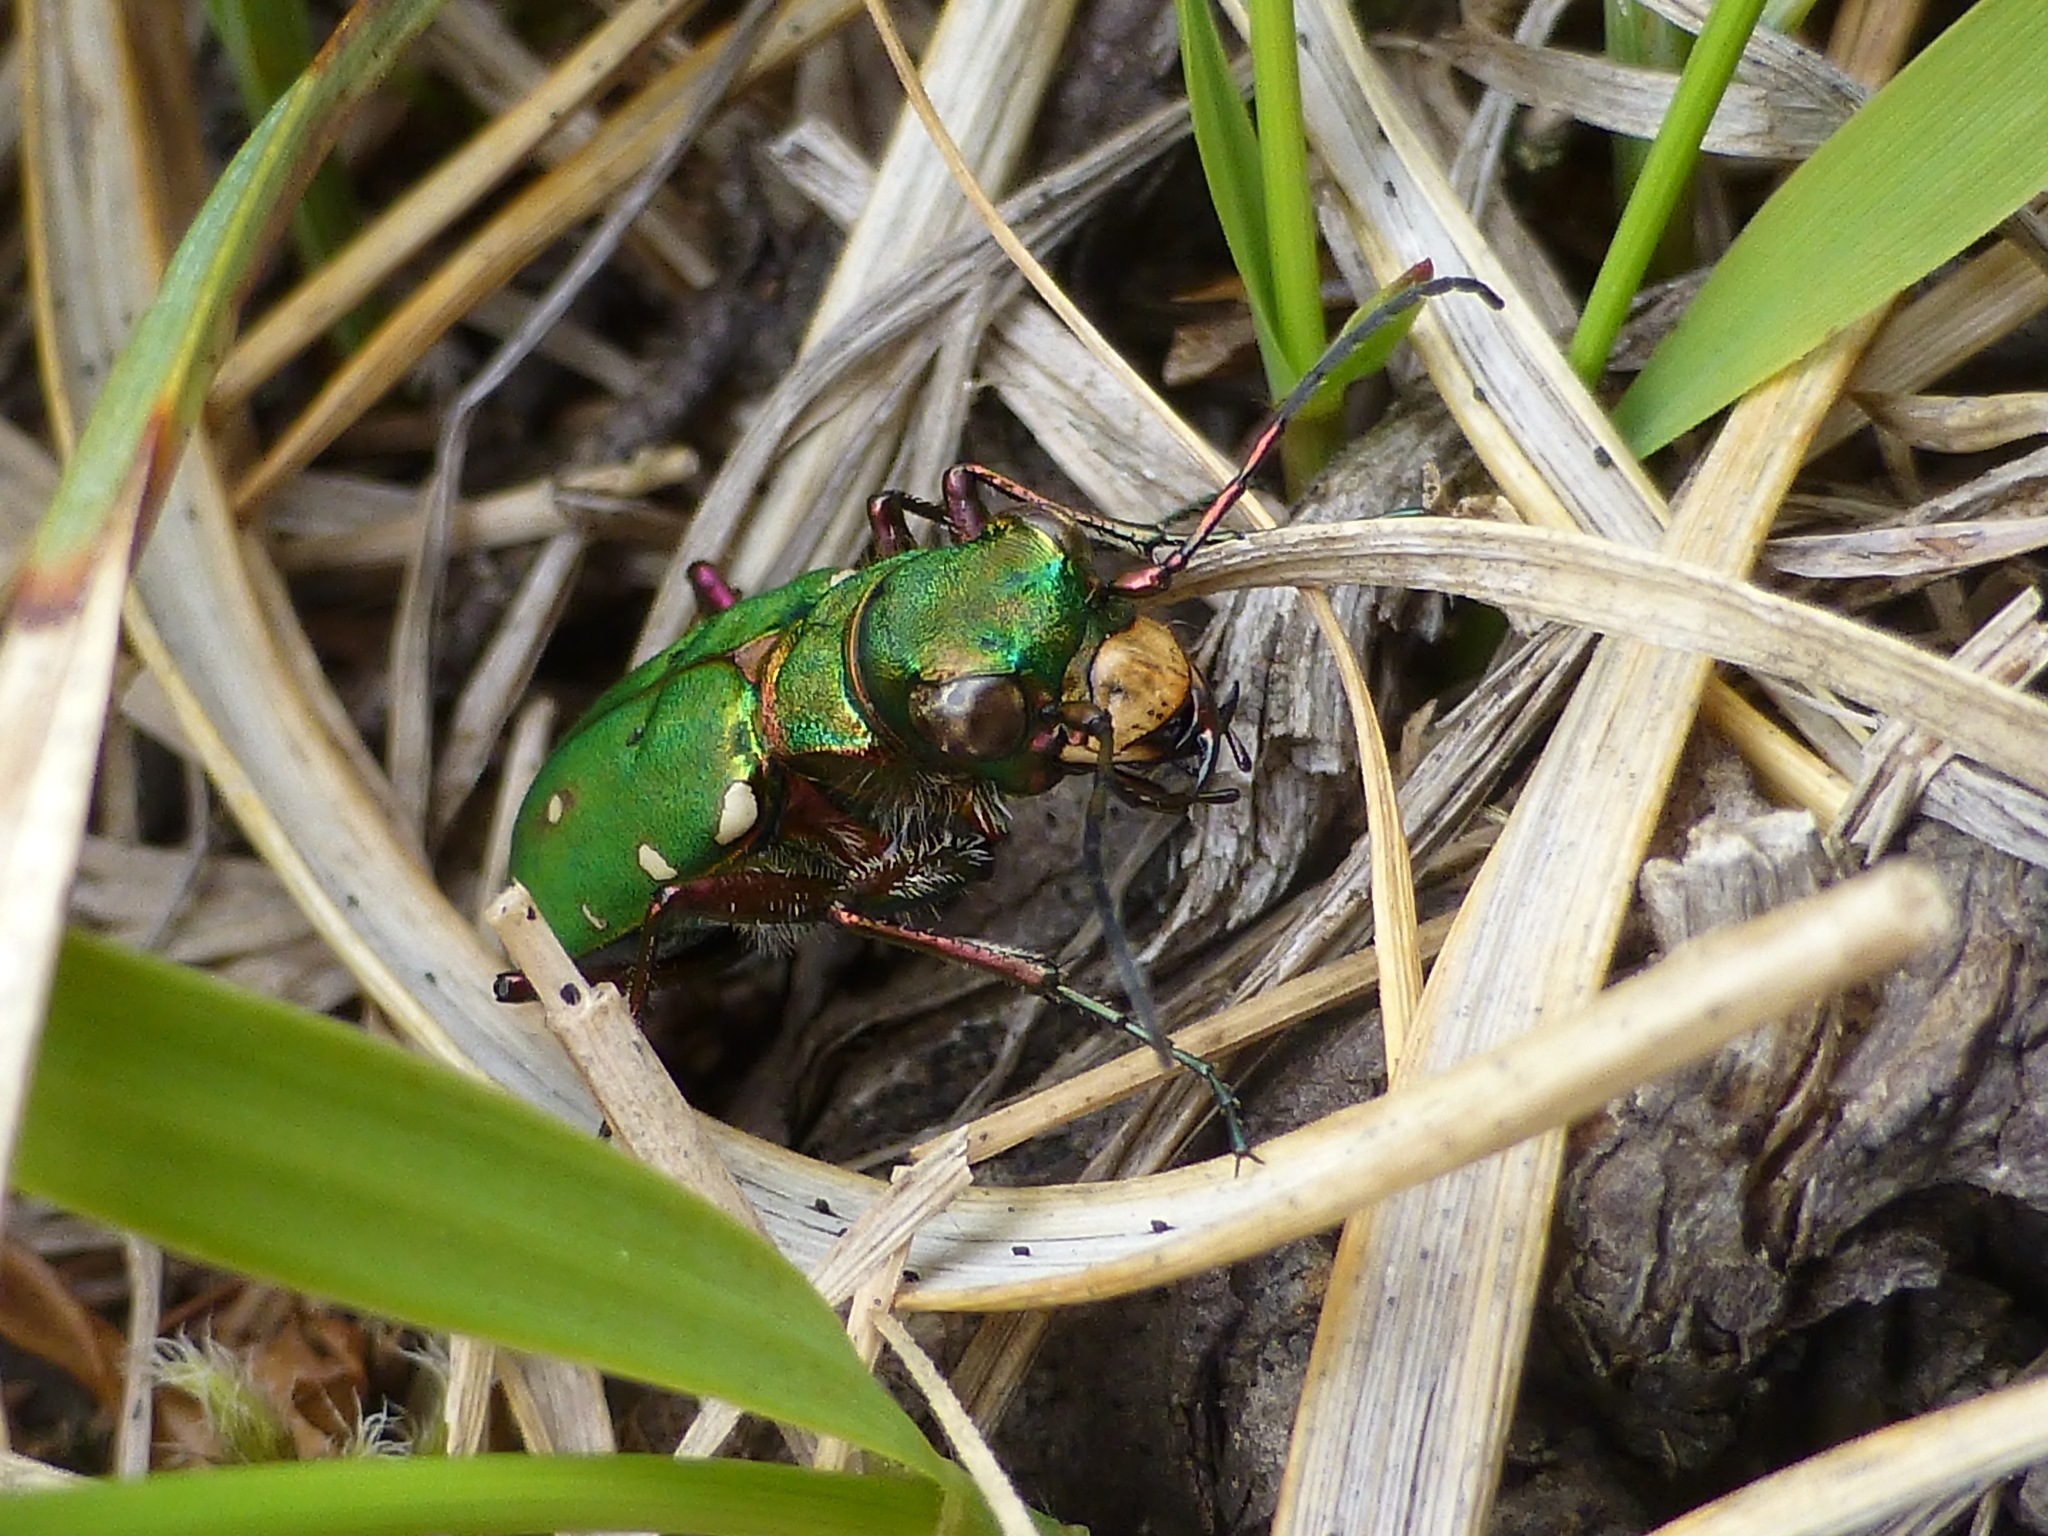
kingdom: Animalia
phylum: Arthropoda
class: Insecta
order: Coleoptera
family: Carabidae
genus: Cicindela
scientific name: Cicindela campestris
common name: Common tiger beetle
